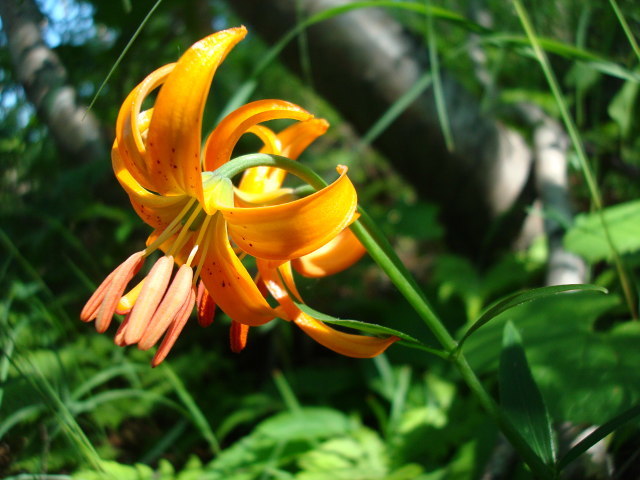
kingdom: Plantae
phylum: Tracheophyta
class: Liliopsida
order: Liliales
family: Liliaceae
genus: Lilium
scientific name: Lilium debile
